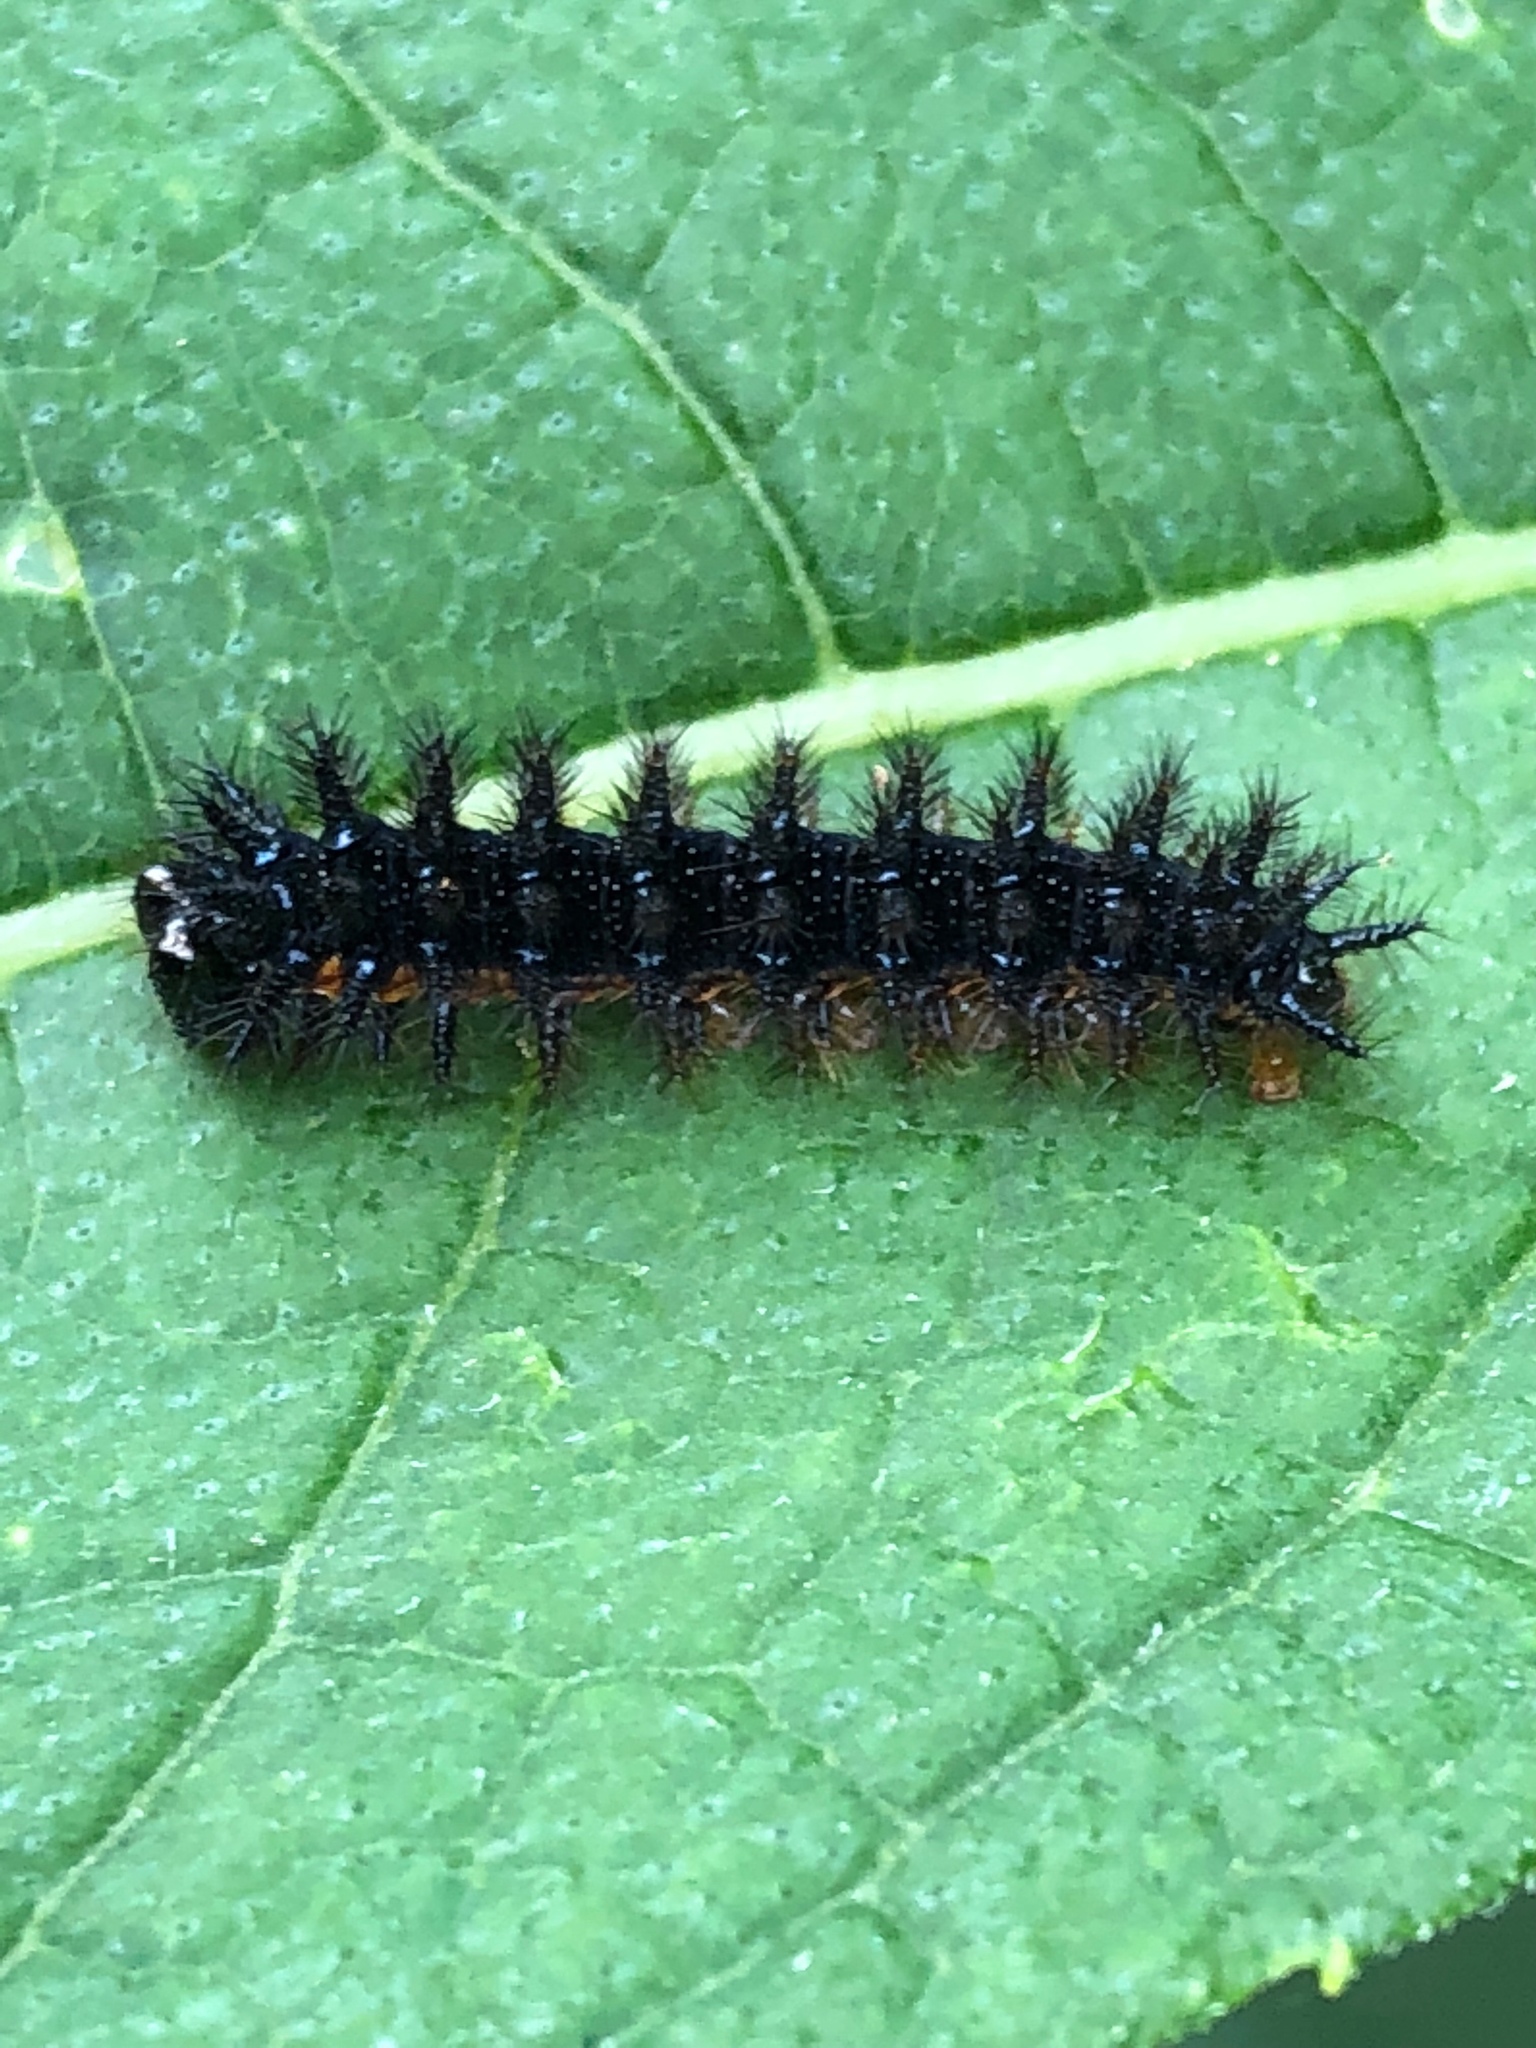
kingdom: Animalia
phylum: Arthropoda
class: Insecta
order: Lepidoptera
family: Nymphalidae
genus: Chlosyne
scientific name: Chlosyne nycteis
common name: Silvery checkerspot
